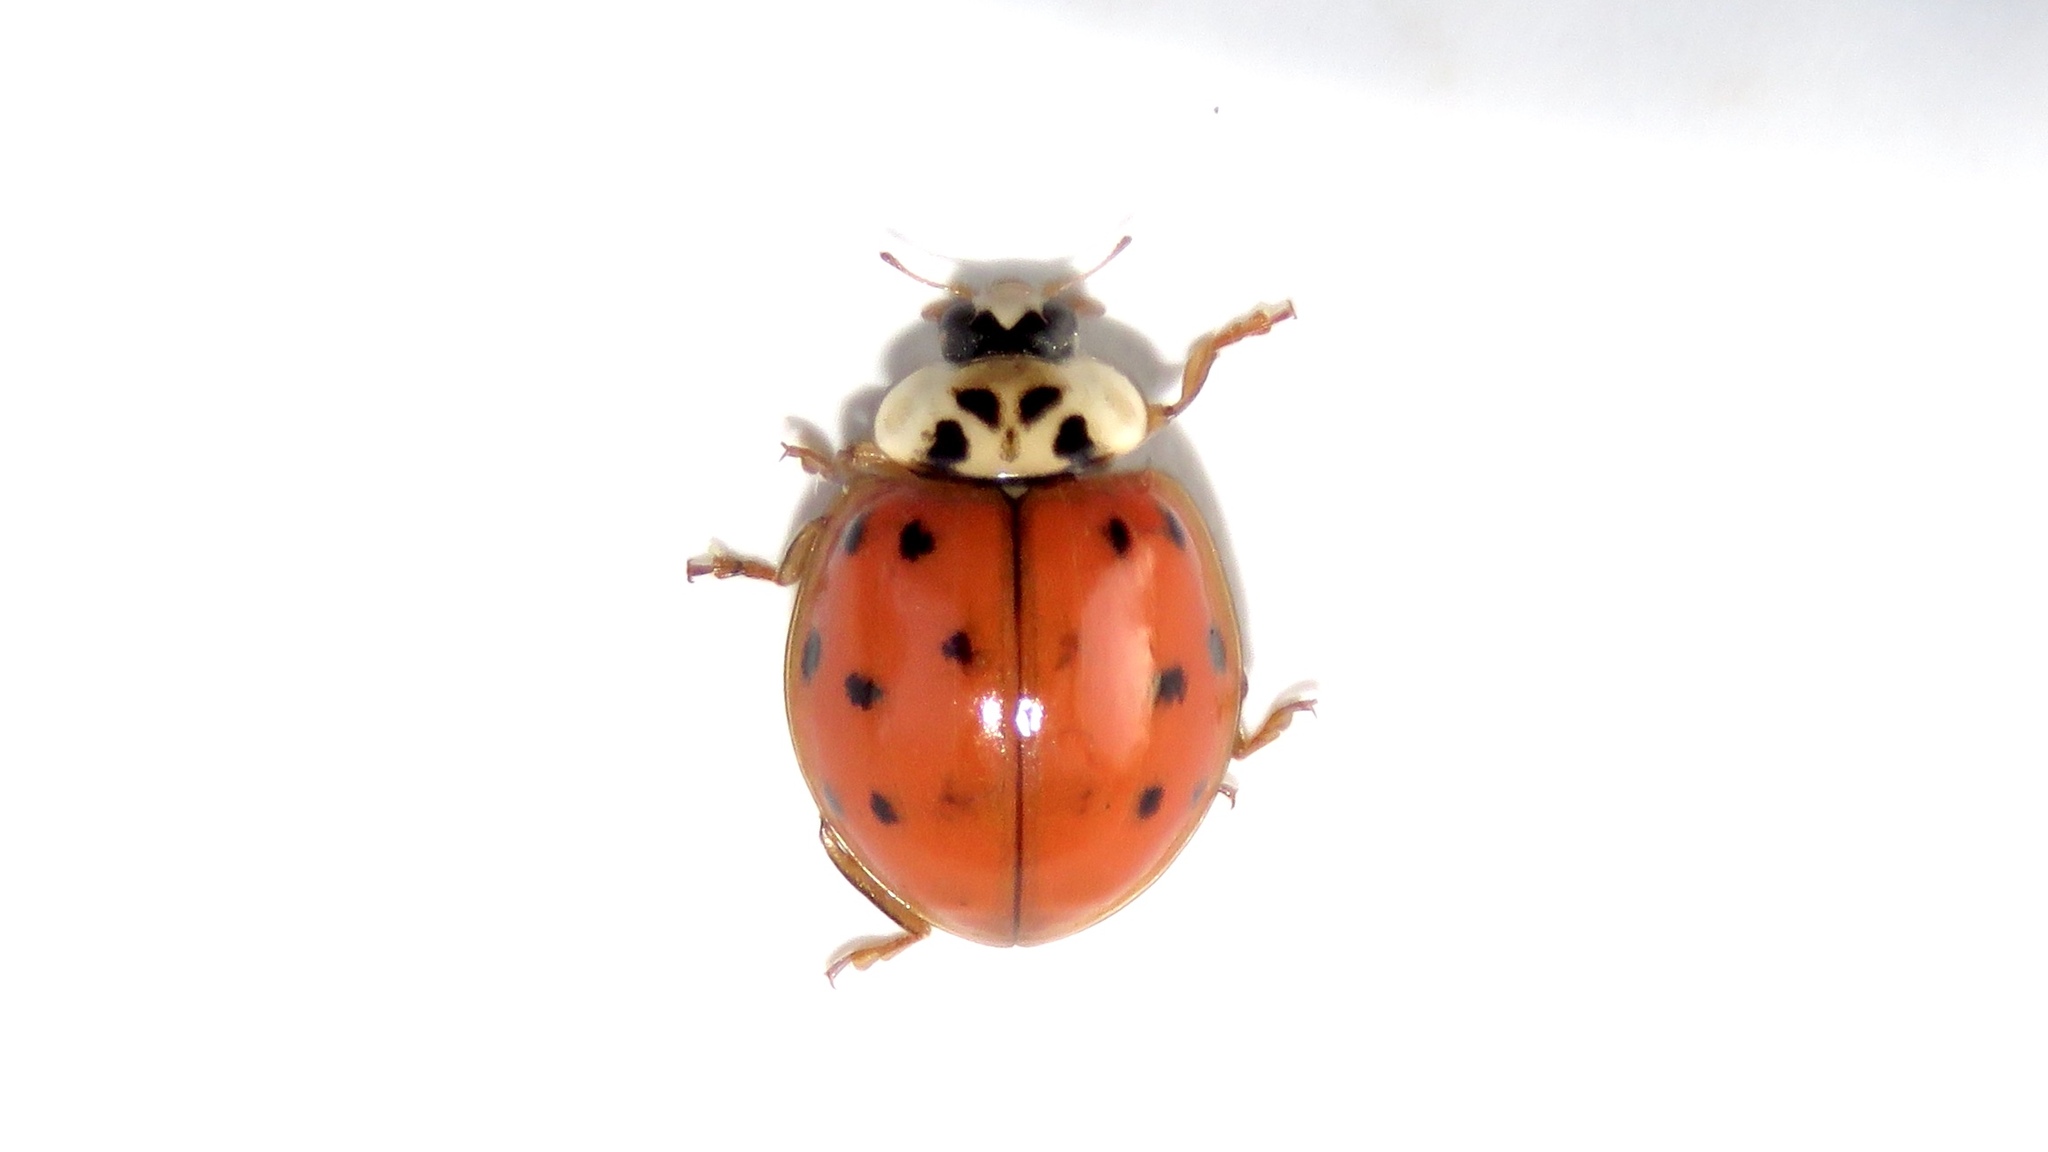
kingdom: Animalia
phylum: Arthropoda
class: Insecta
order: Coleoptera
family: Coccinellidae
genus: Harmonia
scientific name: Harmonia axyridis
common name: Harlequin ladybird
